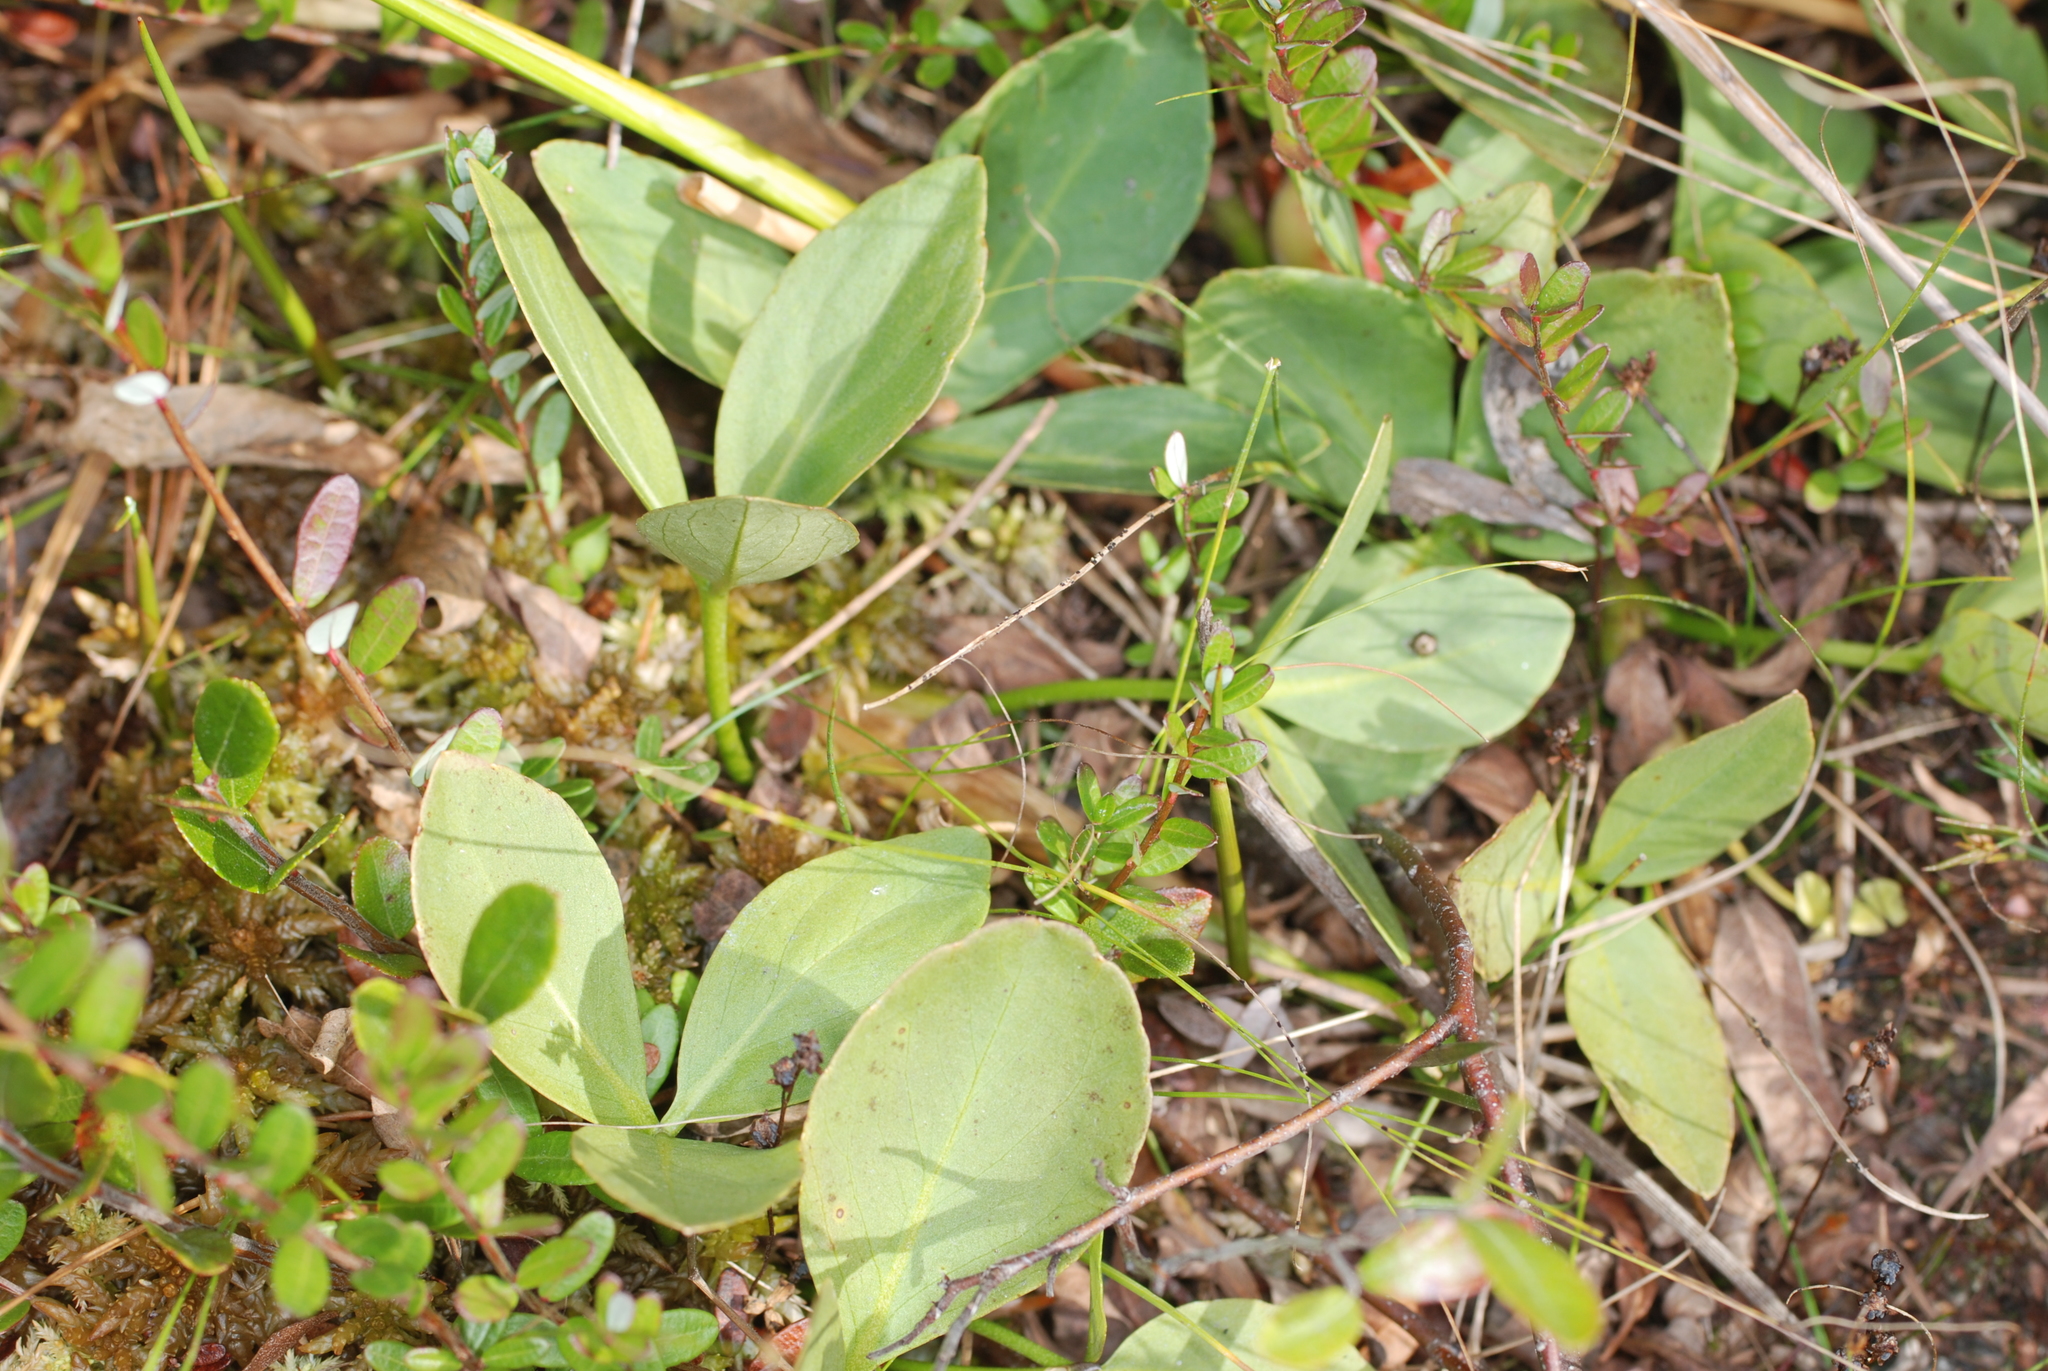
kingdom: Plantae
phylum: Tracheophyta
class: Magnoliopsida
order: Asterales
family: Menyanthaceae
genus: Menyanthes
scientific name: Menyanthes trifoliata
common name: Bogbean
